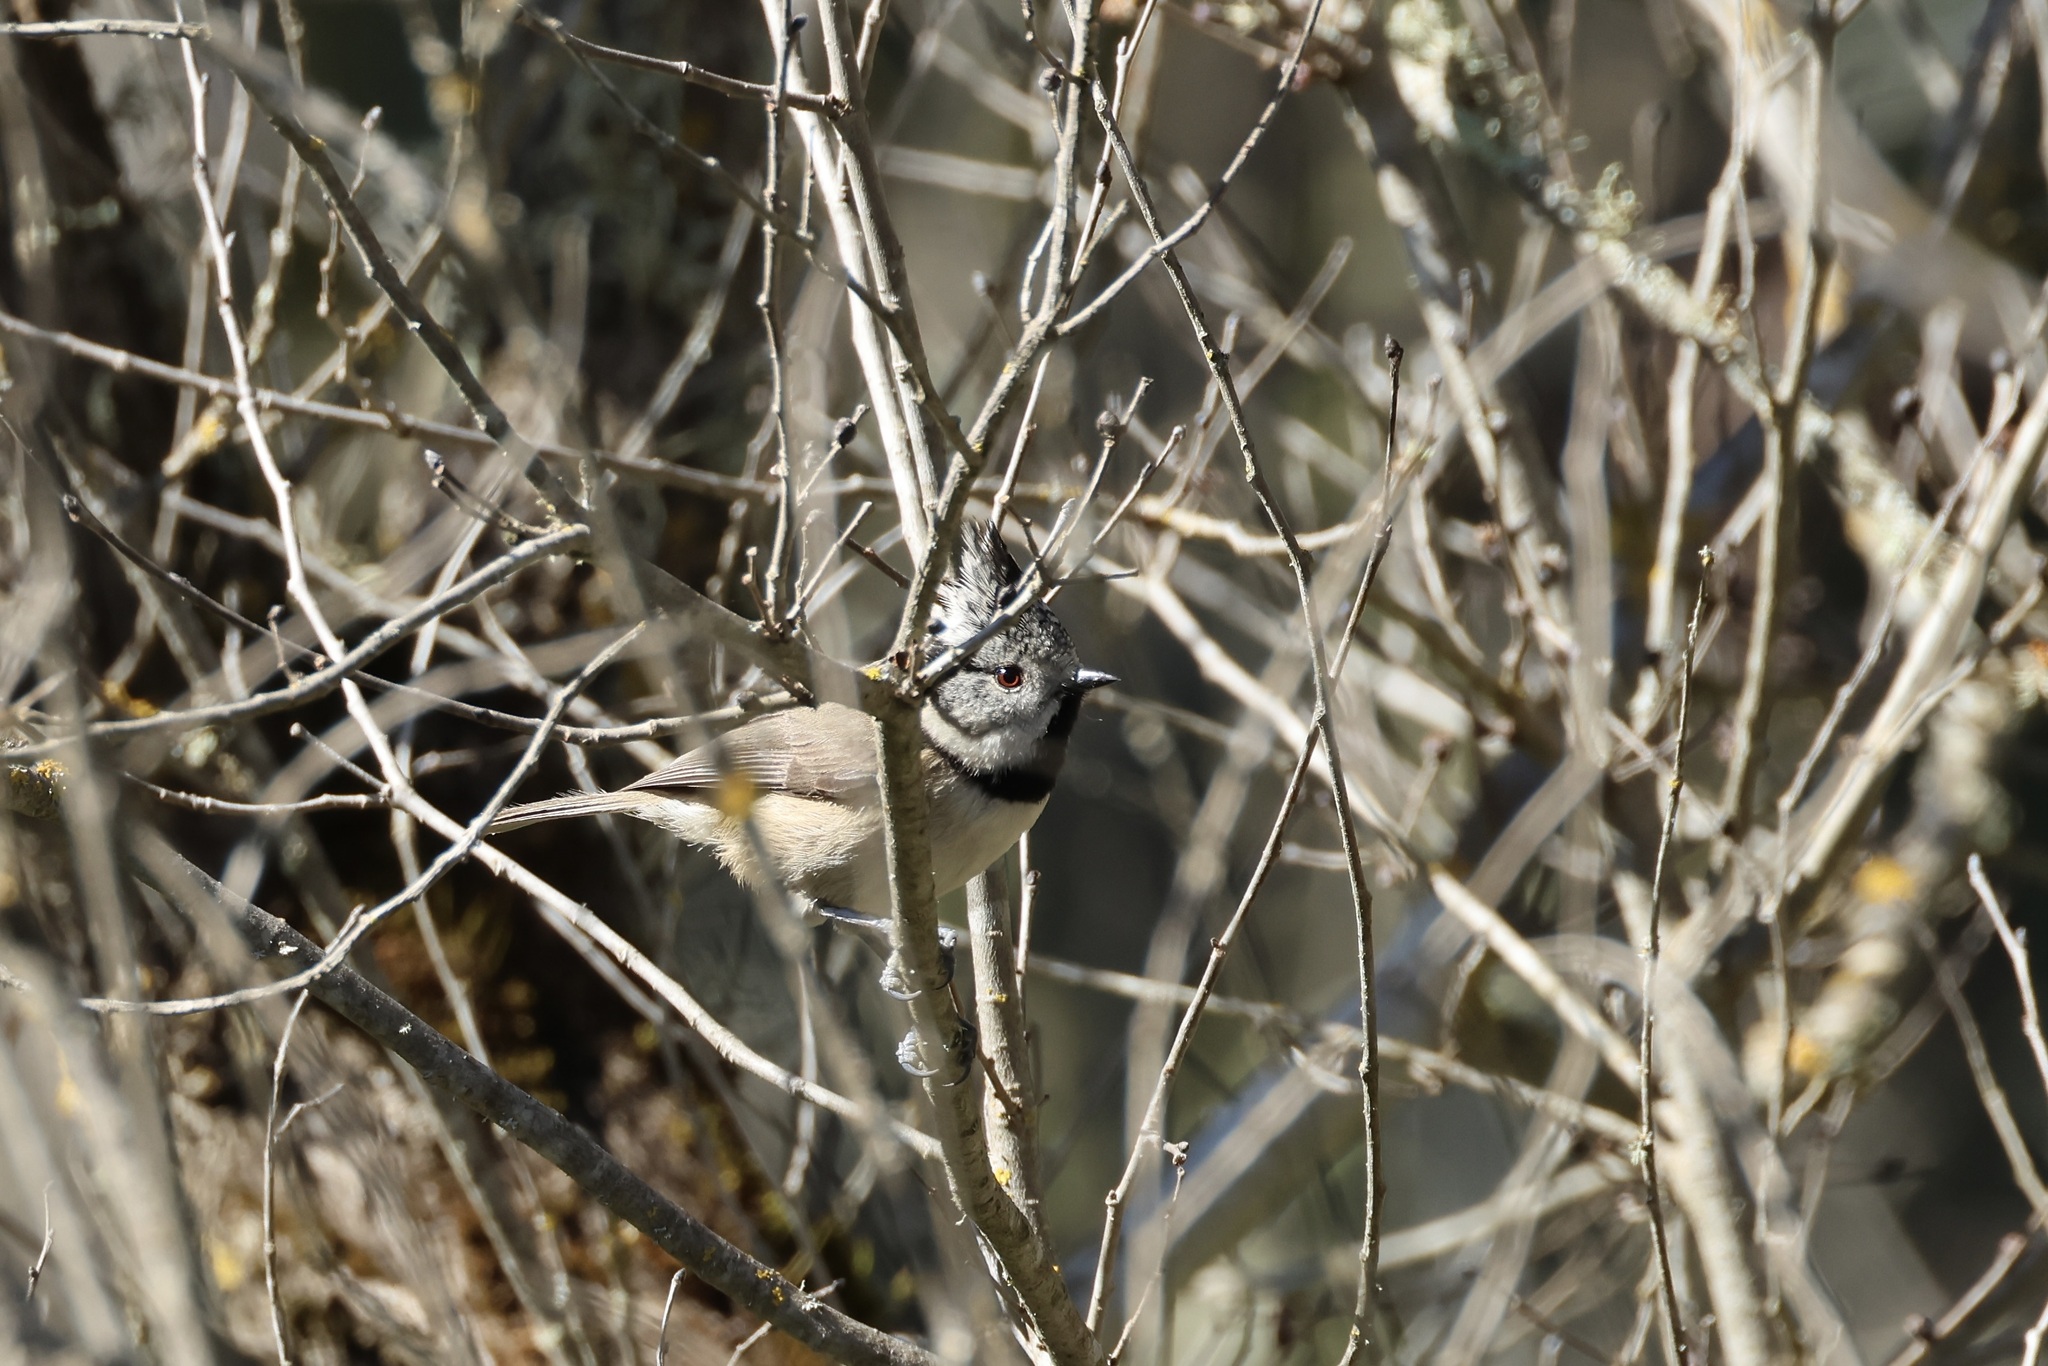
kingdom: Animalia
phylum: Chordata
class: Aves
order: Passeriformes
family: Paridae
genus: Lophophanes
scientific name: Lophophanes cristatus
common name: European crested tit
